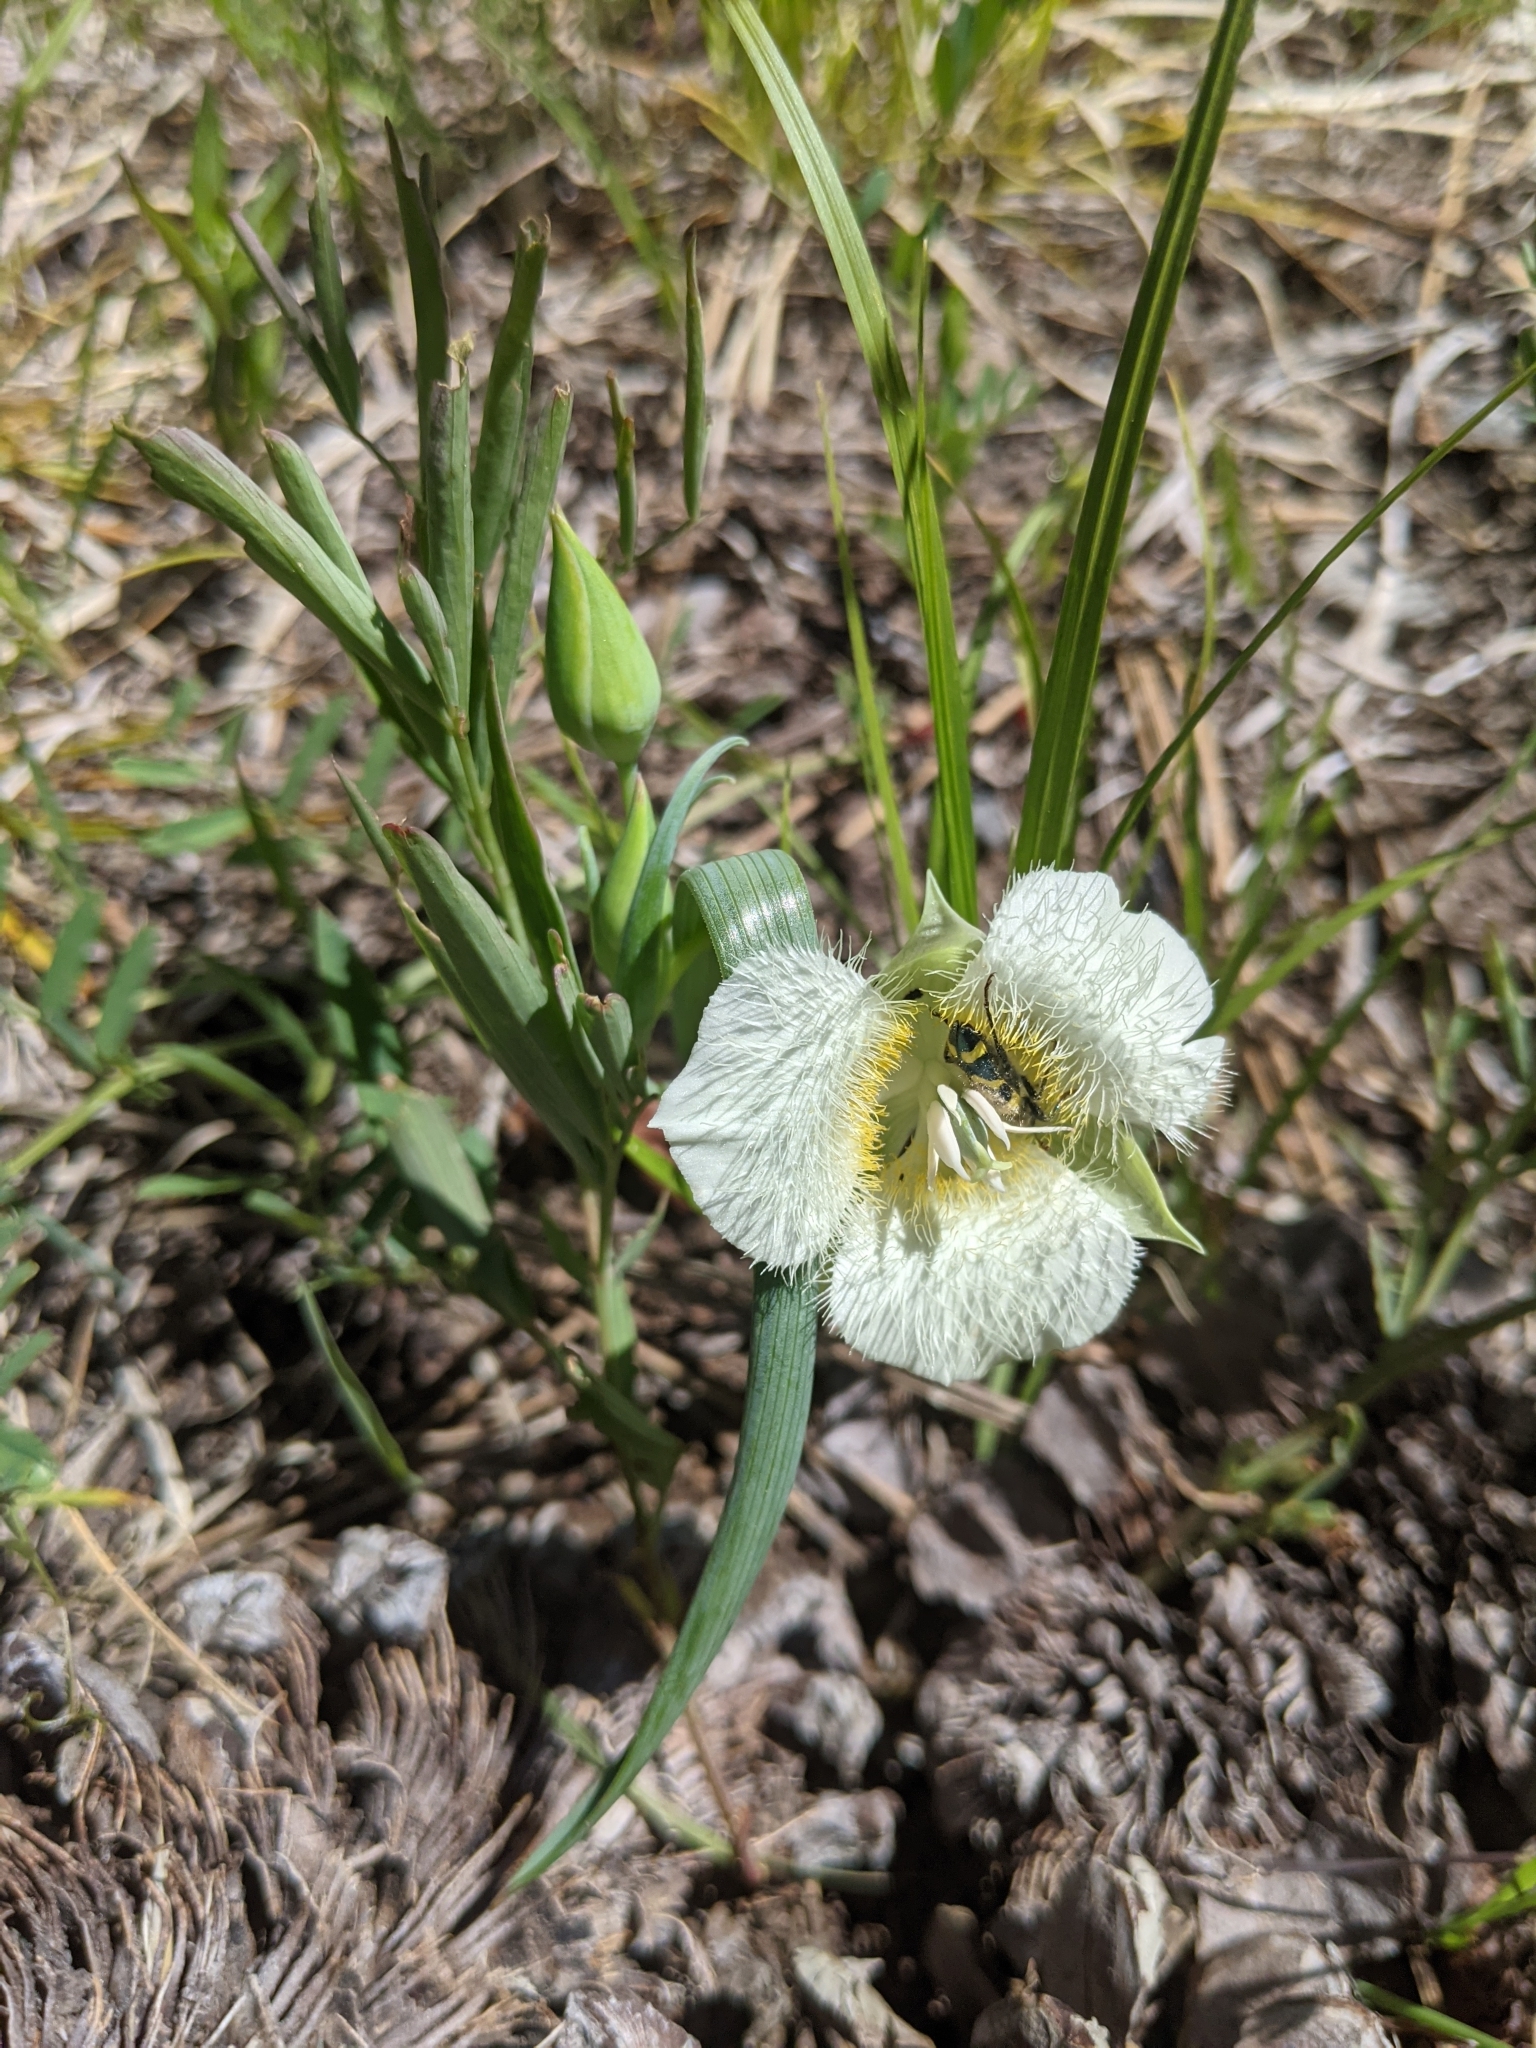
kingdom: Plantae
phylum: Tracheophyta
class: Liliopsida
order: Liliales
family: Liliaceae
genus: Calochortus
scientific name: Calochortus subalpinus
